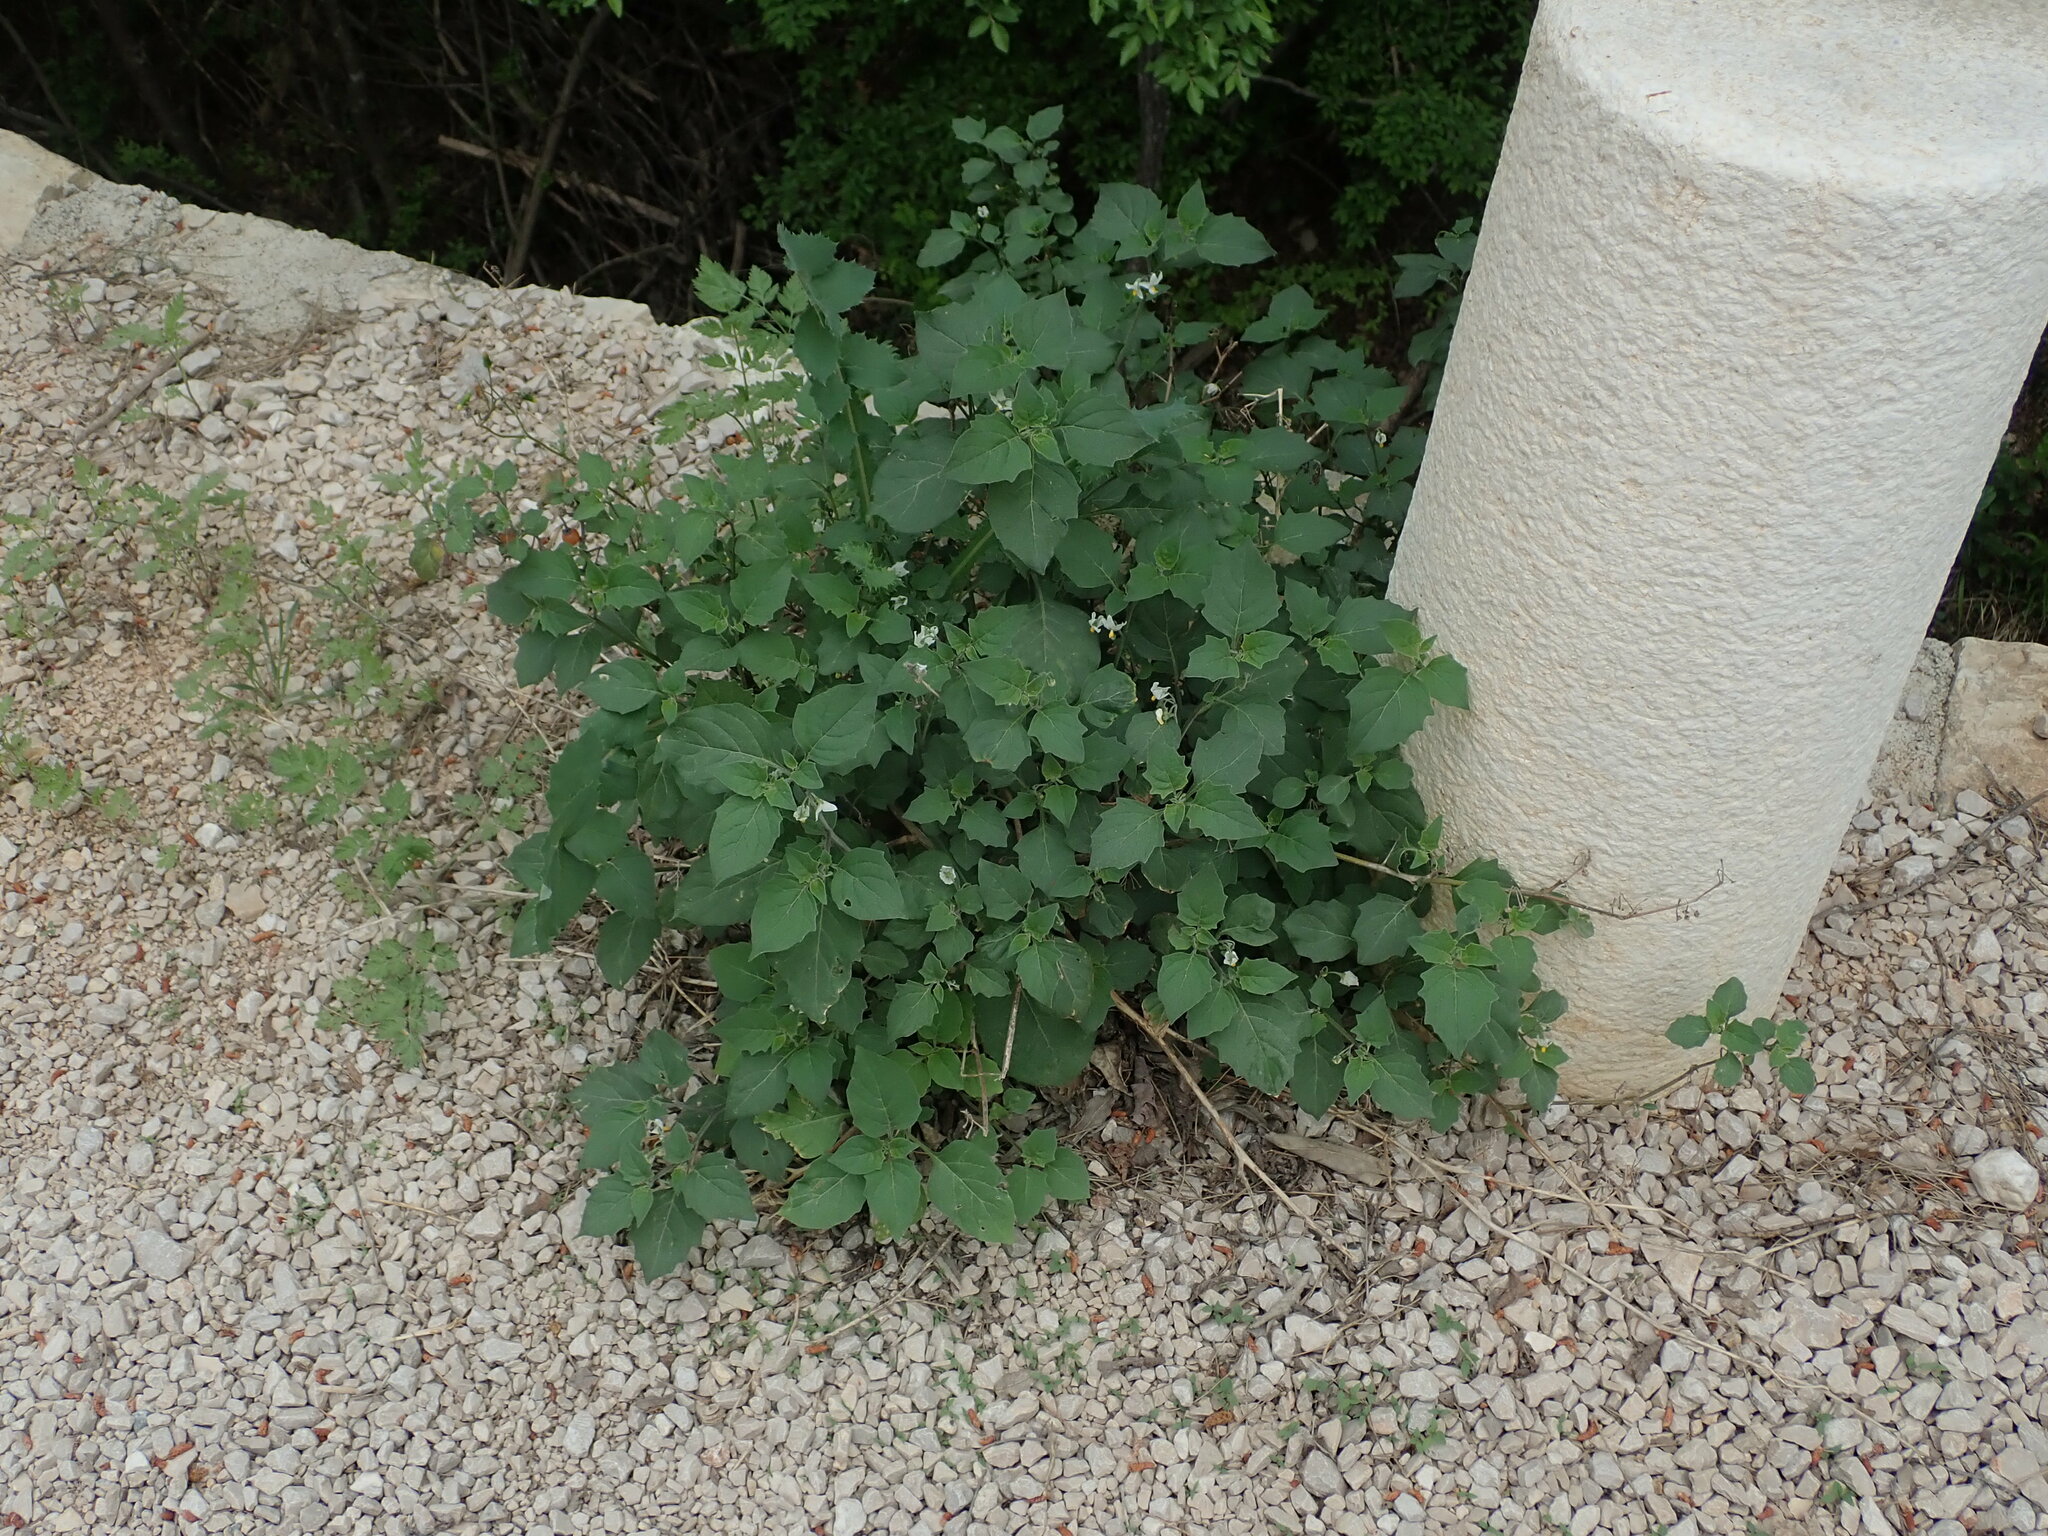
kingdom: Plantae
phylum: Tracheophyta
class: Magnoliopsida
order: Solanales
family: Solanaceae
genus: Solanum
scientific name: Solanum villosum
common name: Red nightshade
